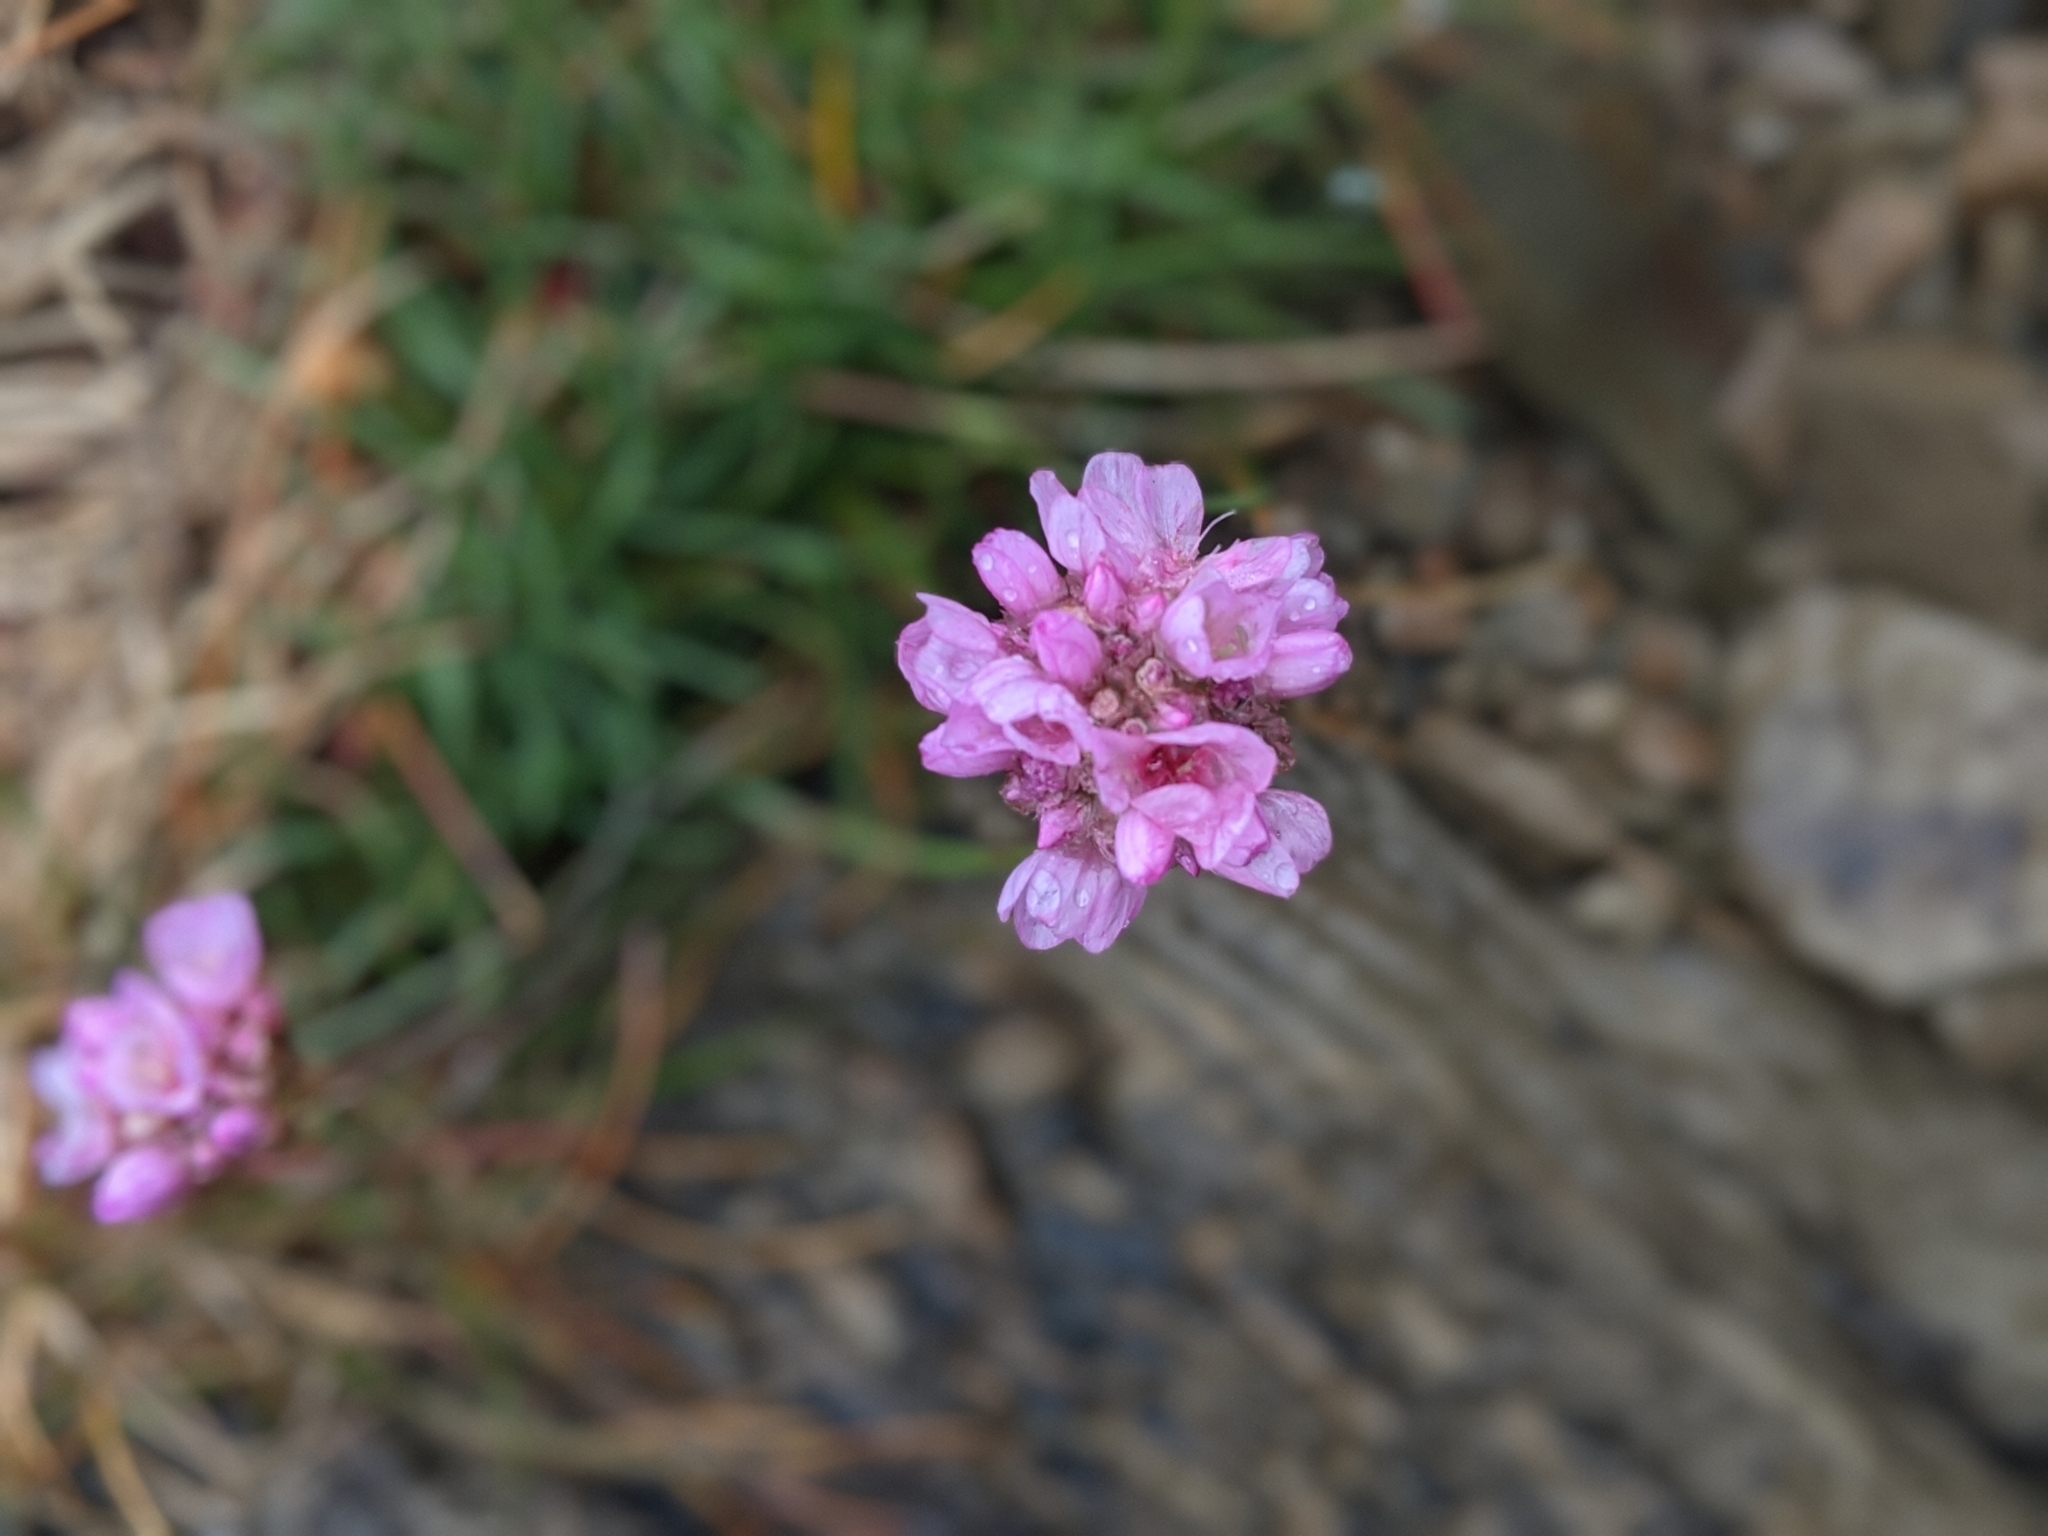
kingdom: Plantae
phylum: Tracheophyta
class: Magnoliopsida
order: Caryophyllales
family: Plumbaginaceae
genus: Armeria
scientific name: Armeria maritima
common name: Thrift
